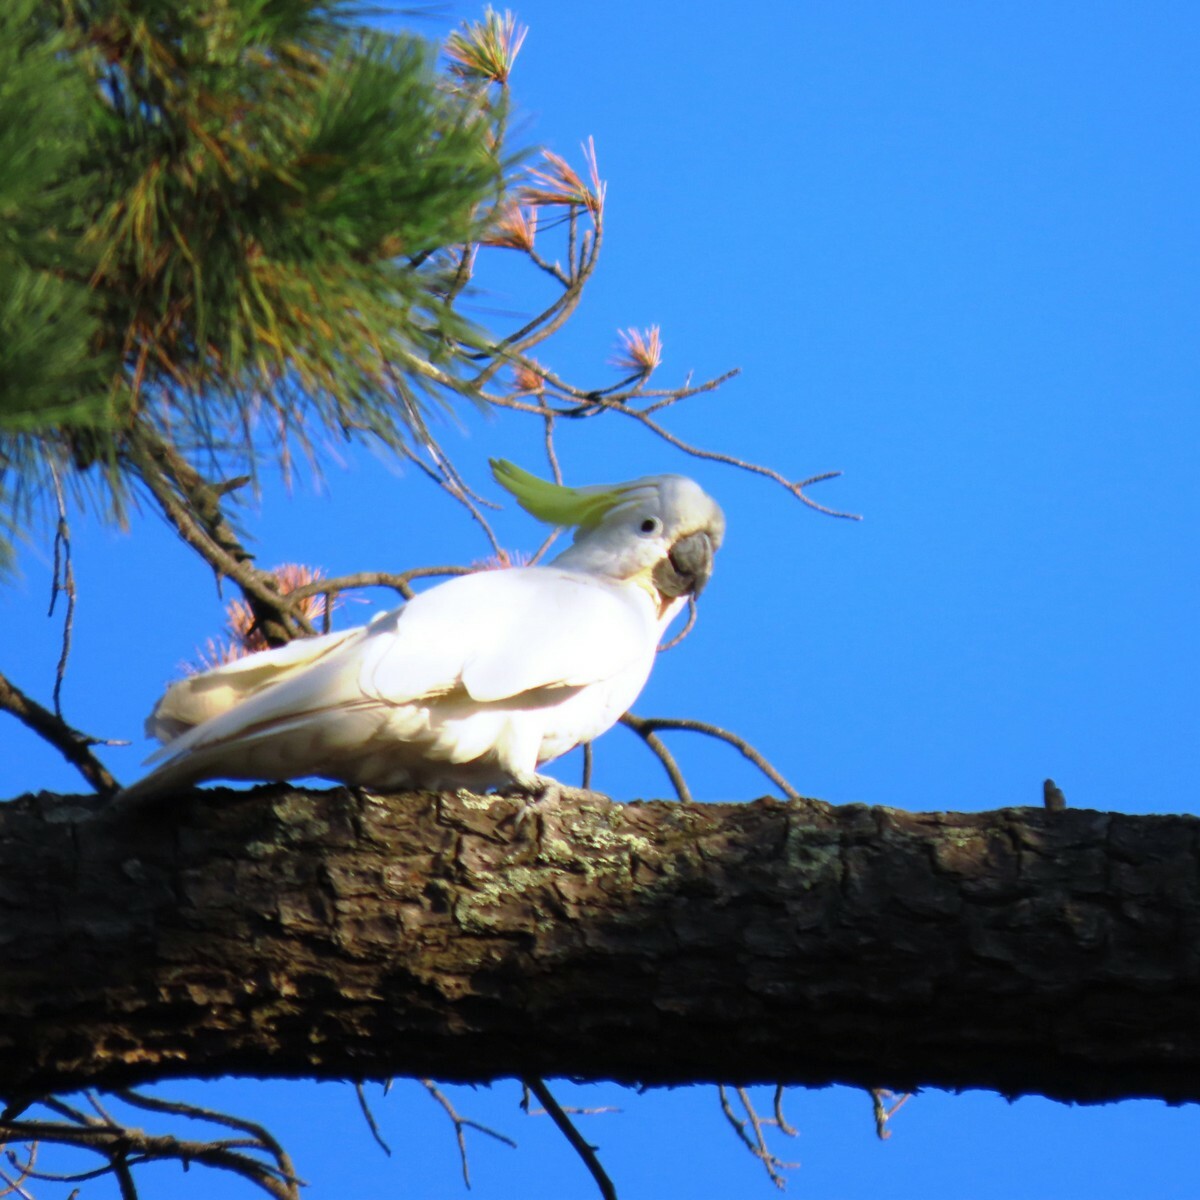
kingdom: Animalia
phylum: Chordata
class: Aves
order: Psittaciformes
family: Psittacidae
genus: Cacatua
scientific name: Cacatua galerita
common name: Sulphur-crested cockatoo
